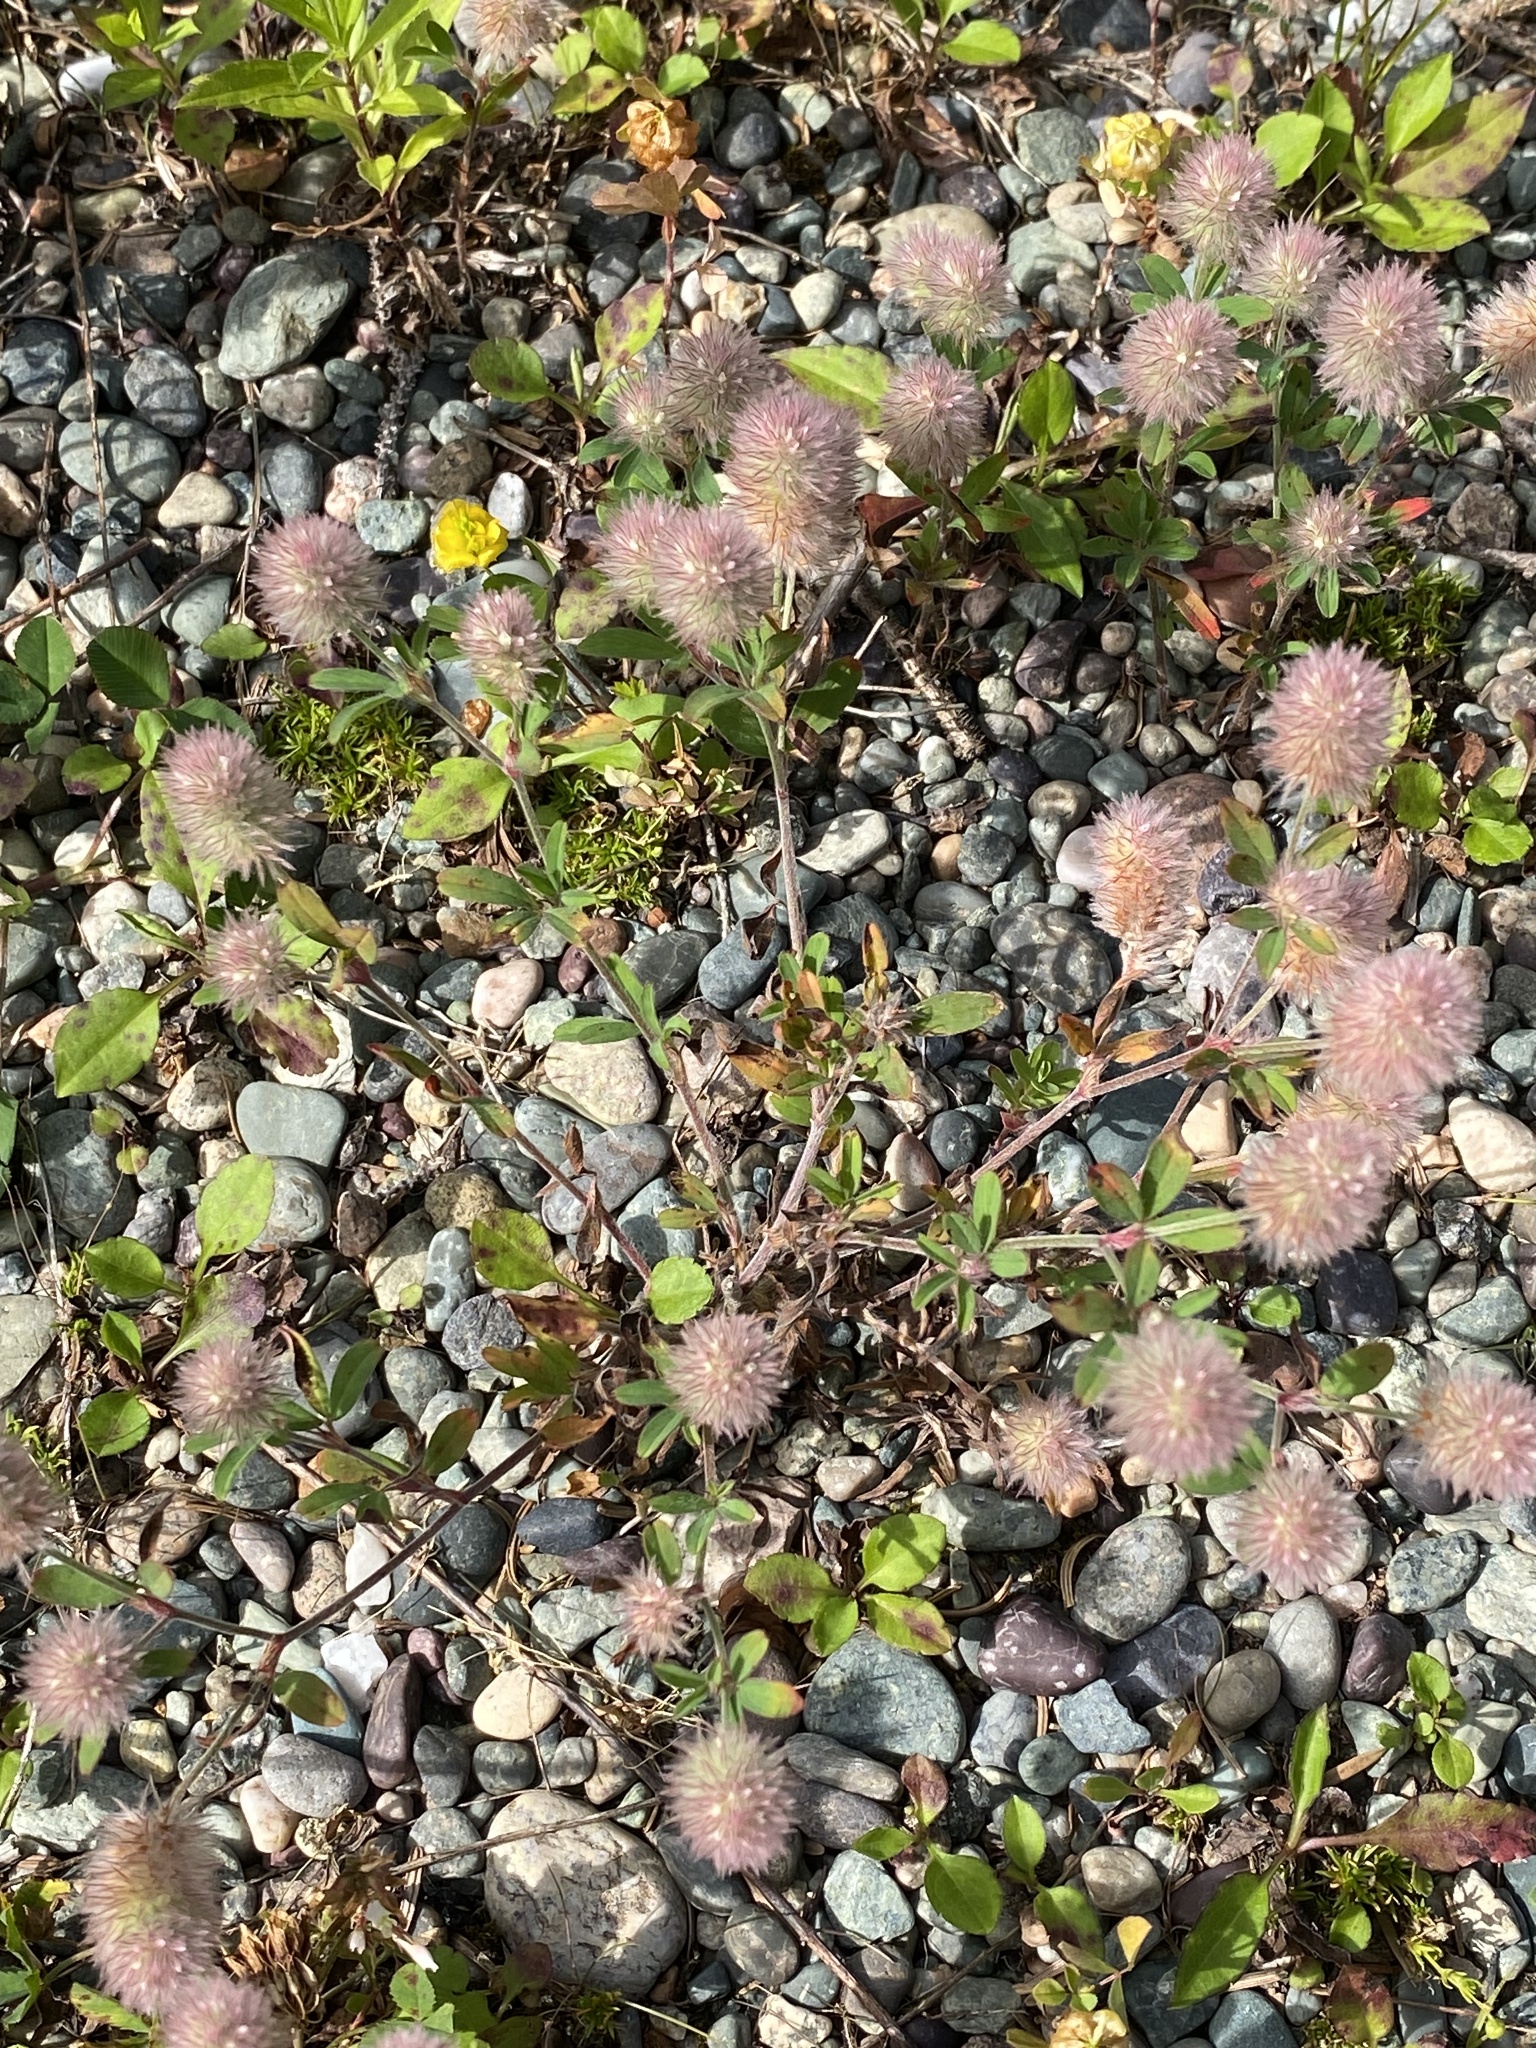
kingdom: Plantae
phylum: Tracheophyta
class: Magnoliopsida
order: Fabales
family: Fabaceae
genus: Trifolium
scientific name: Trifolium arvense
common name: Hare's-foot clover
